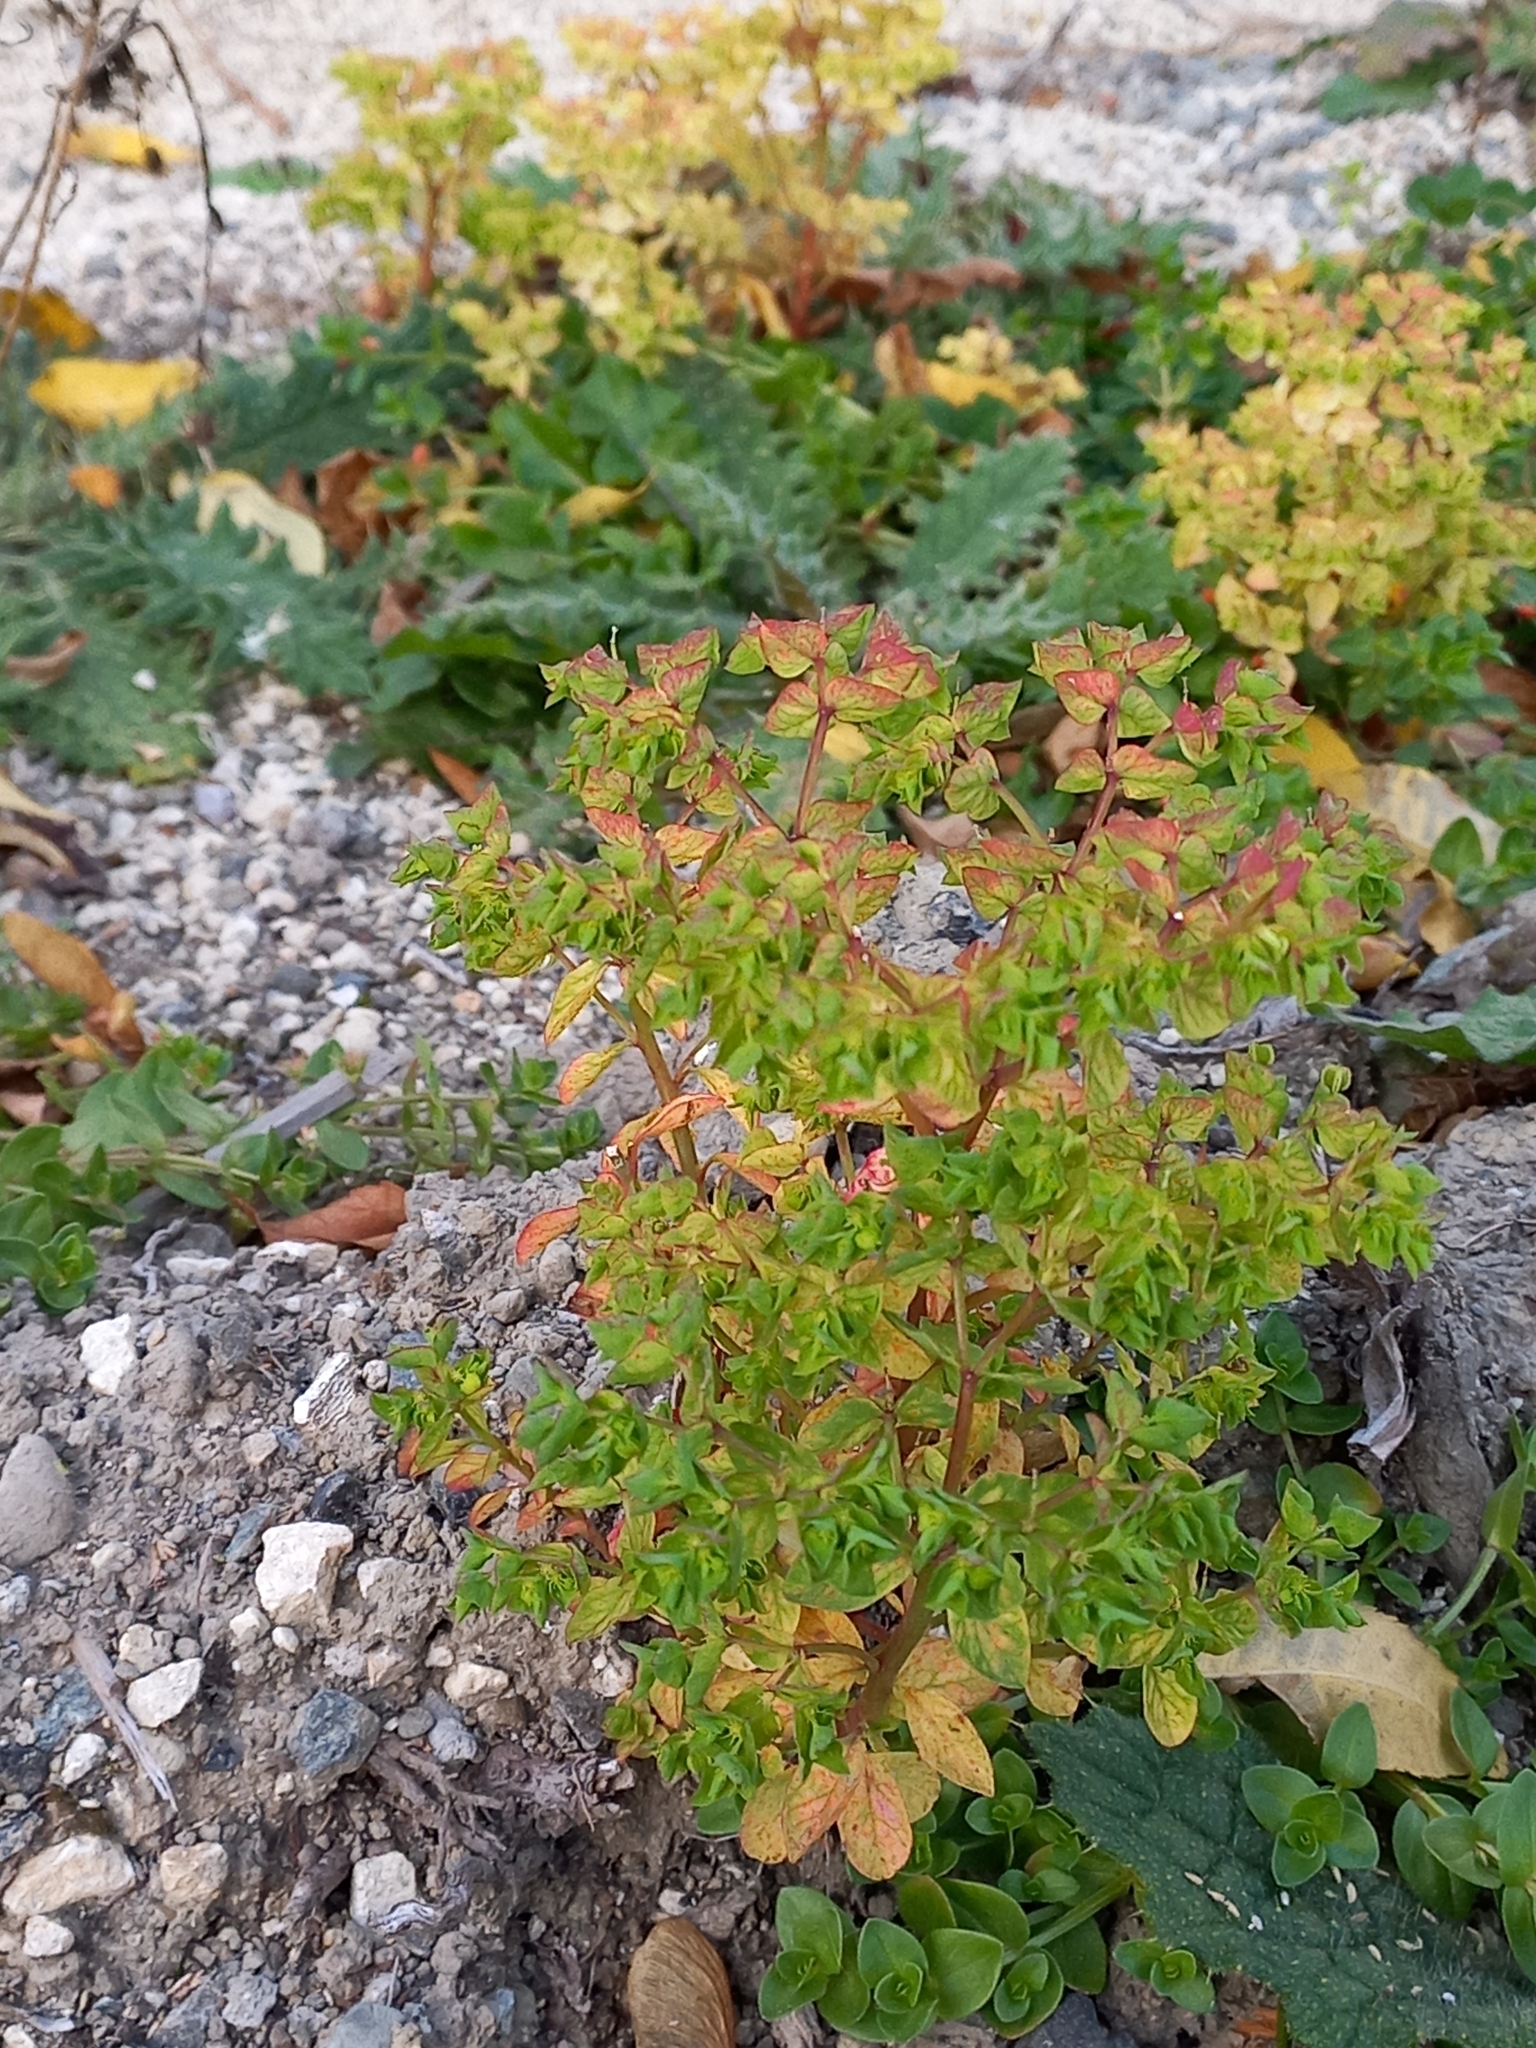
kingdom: Plantae
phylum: Tracheophyta
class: Magnoliopsida
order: Malpighiales
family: Euphorbiaceae
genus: Euphorbia
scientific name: Euphorbia peplus
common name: Petty spurge
